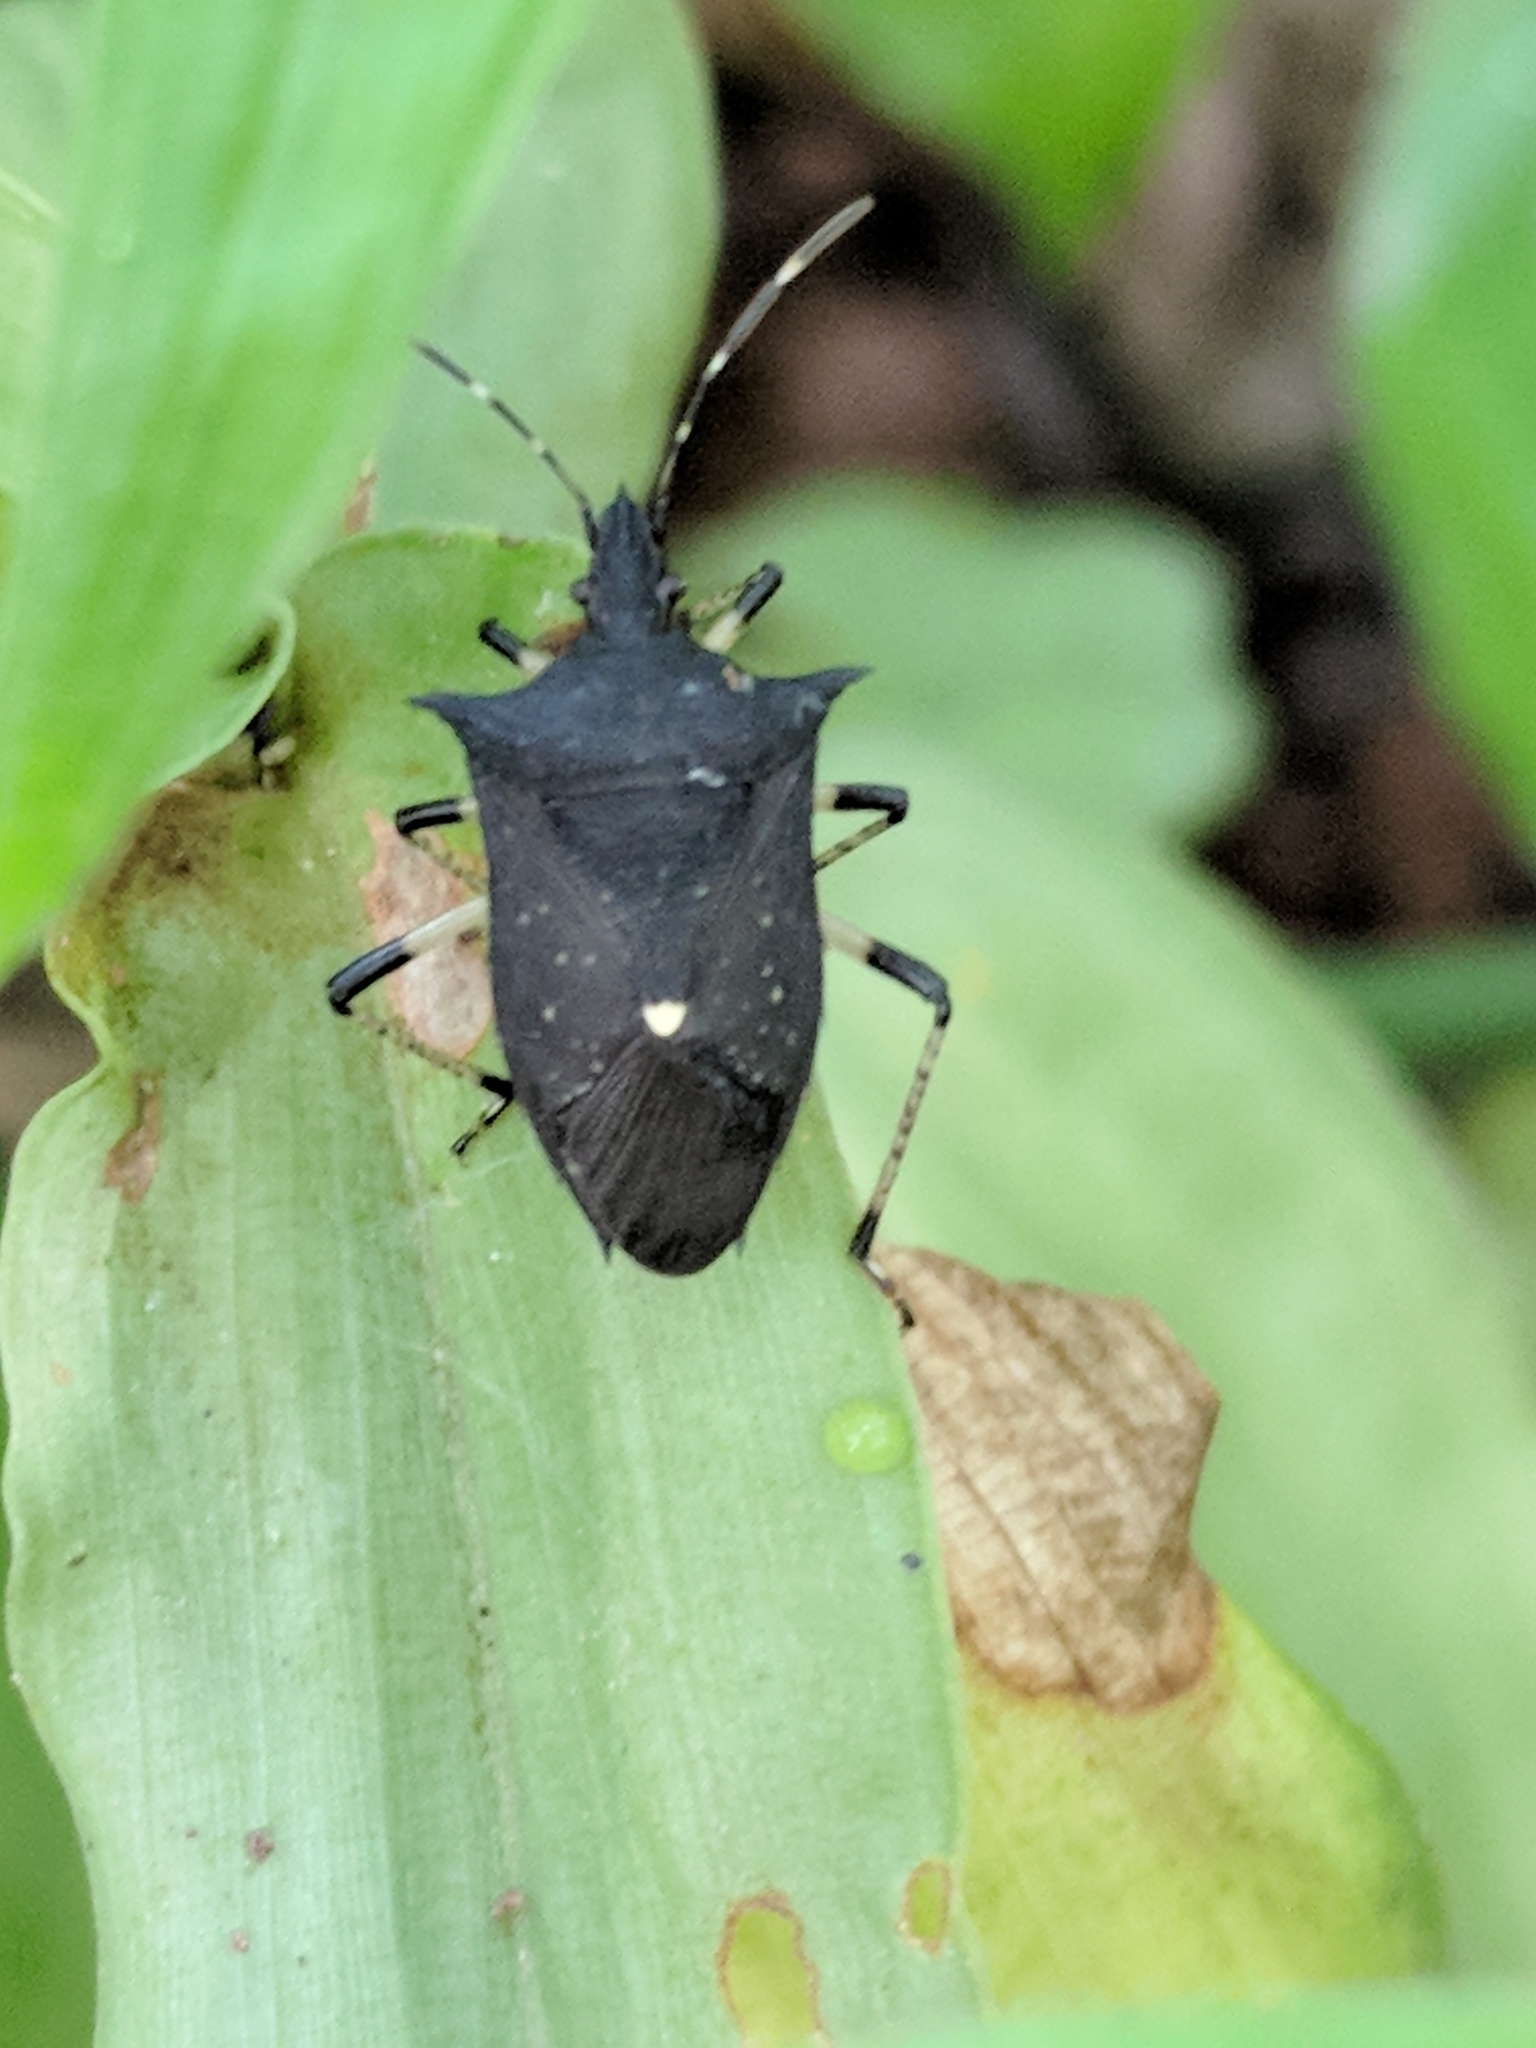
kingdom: Animalia
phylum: Arthropoda
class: Insecta
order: Hemiptera
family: Pentatomidae
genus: Proxys
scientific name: Proxys punctulatus
